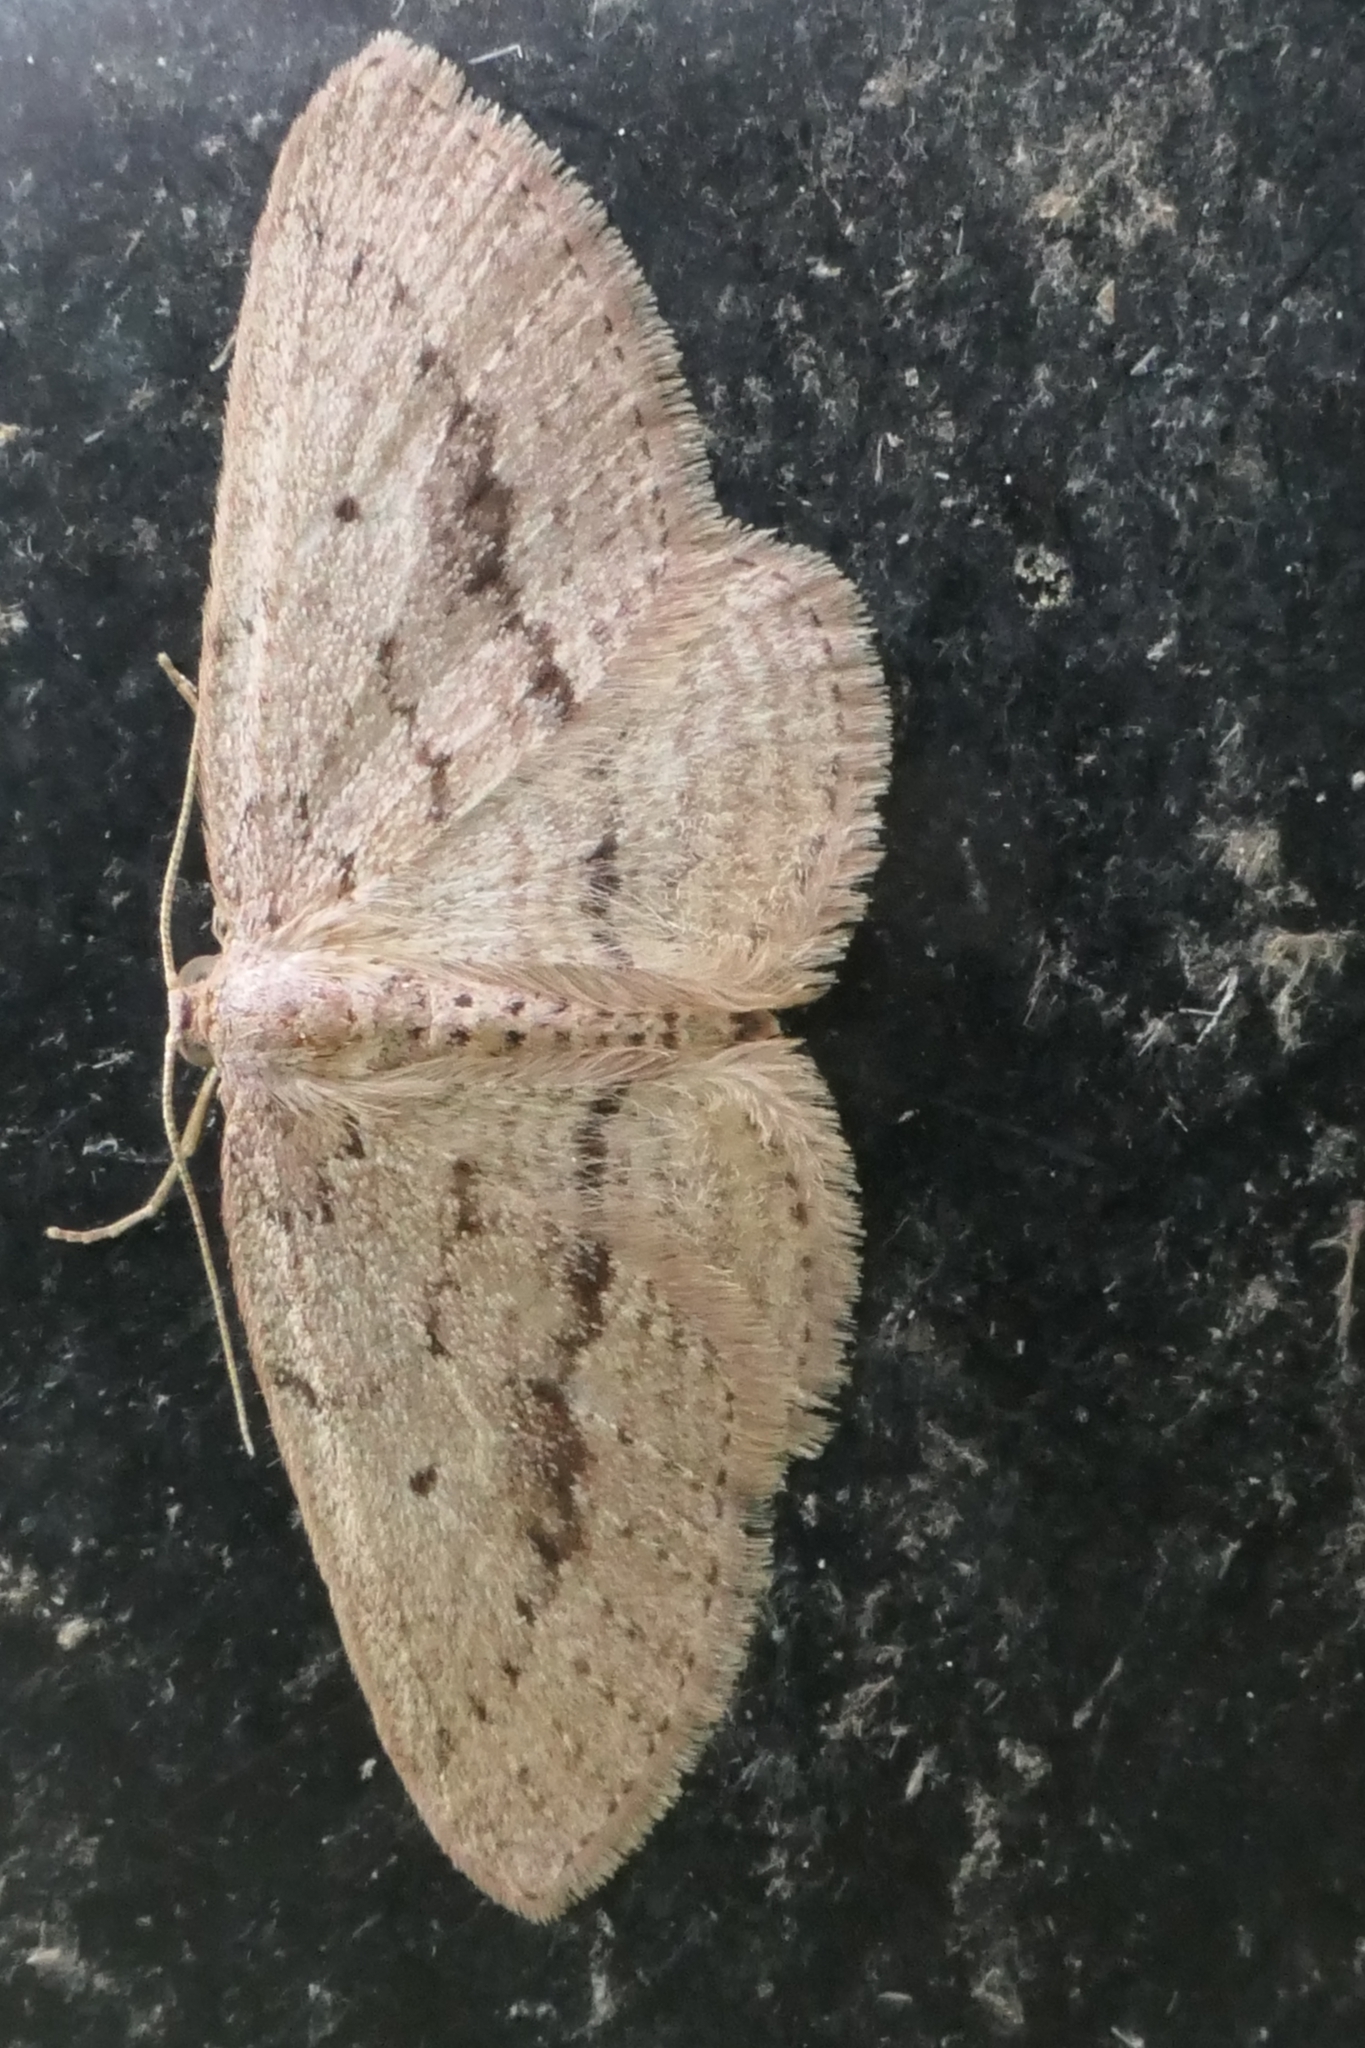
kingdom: Animalia
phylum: Arthropoda
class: Insecta
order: Lepidoptera
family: Geometridae
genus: Poecilasthena
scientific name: Poecilasthena schistaria
